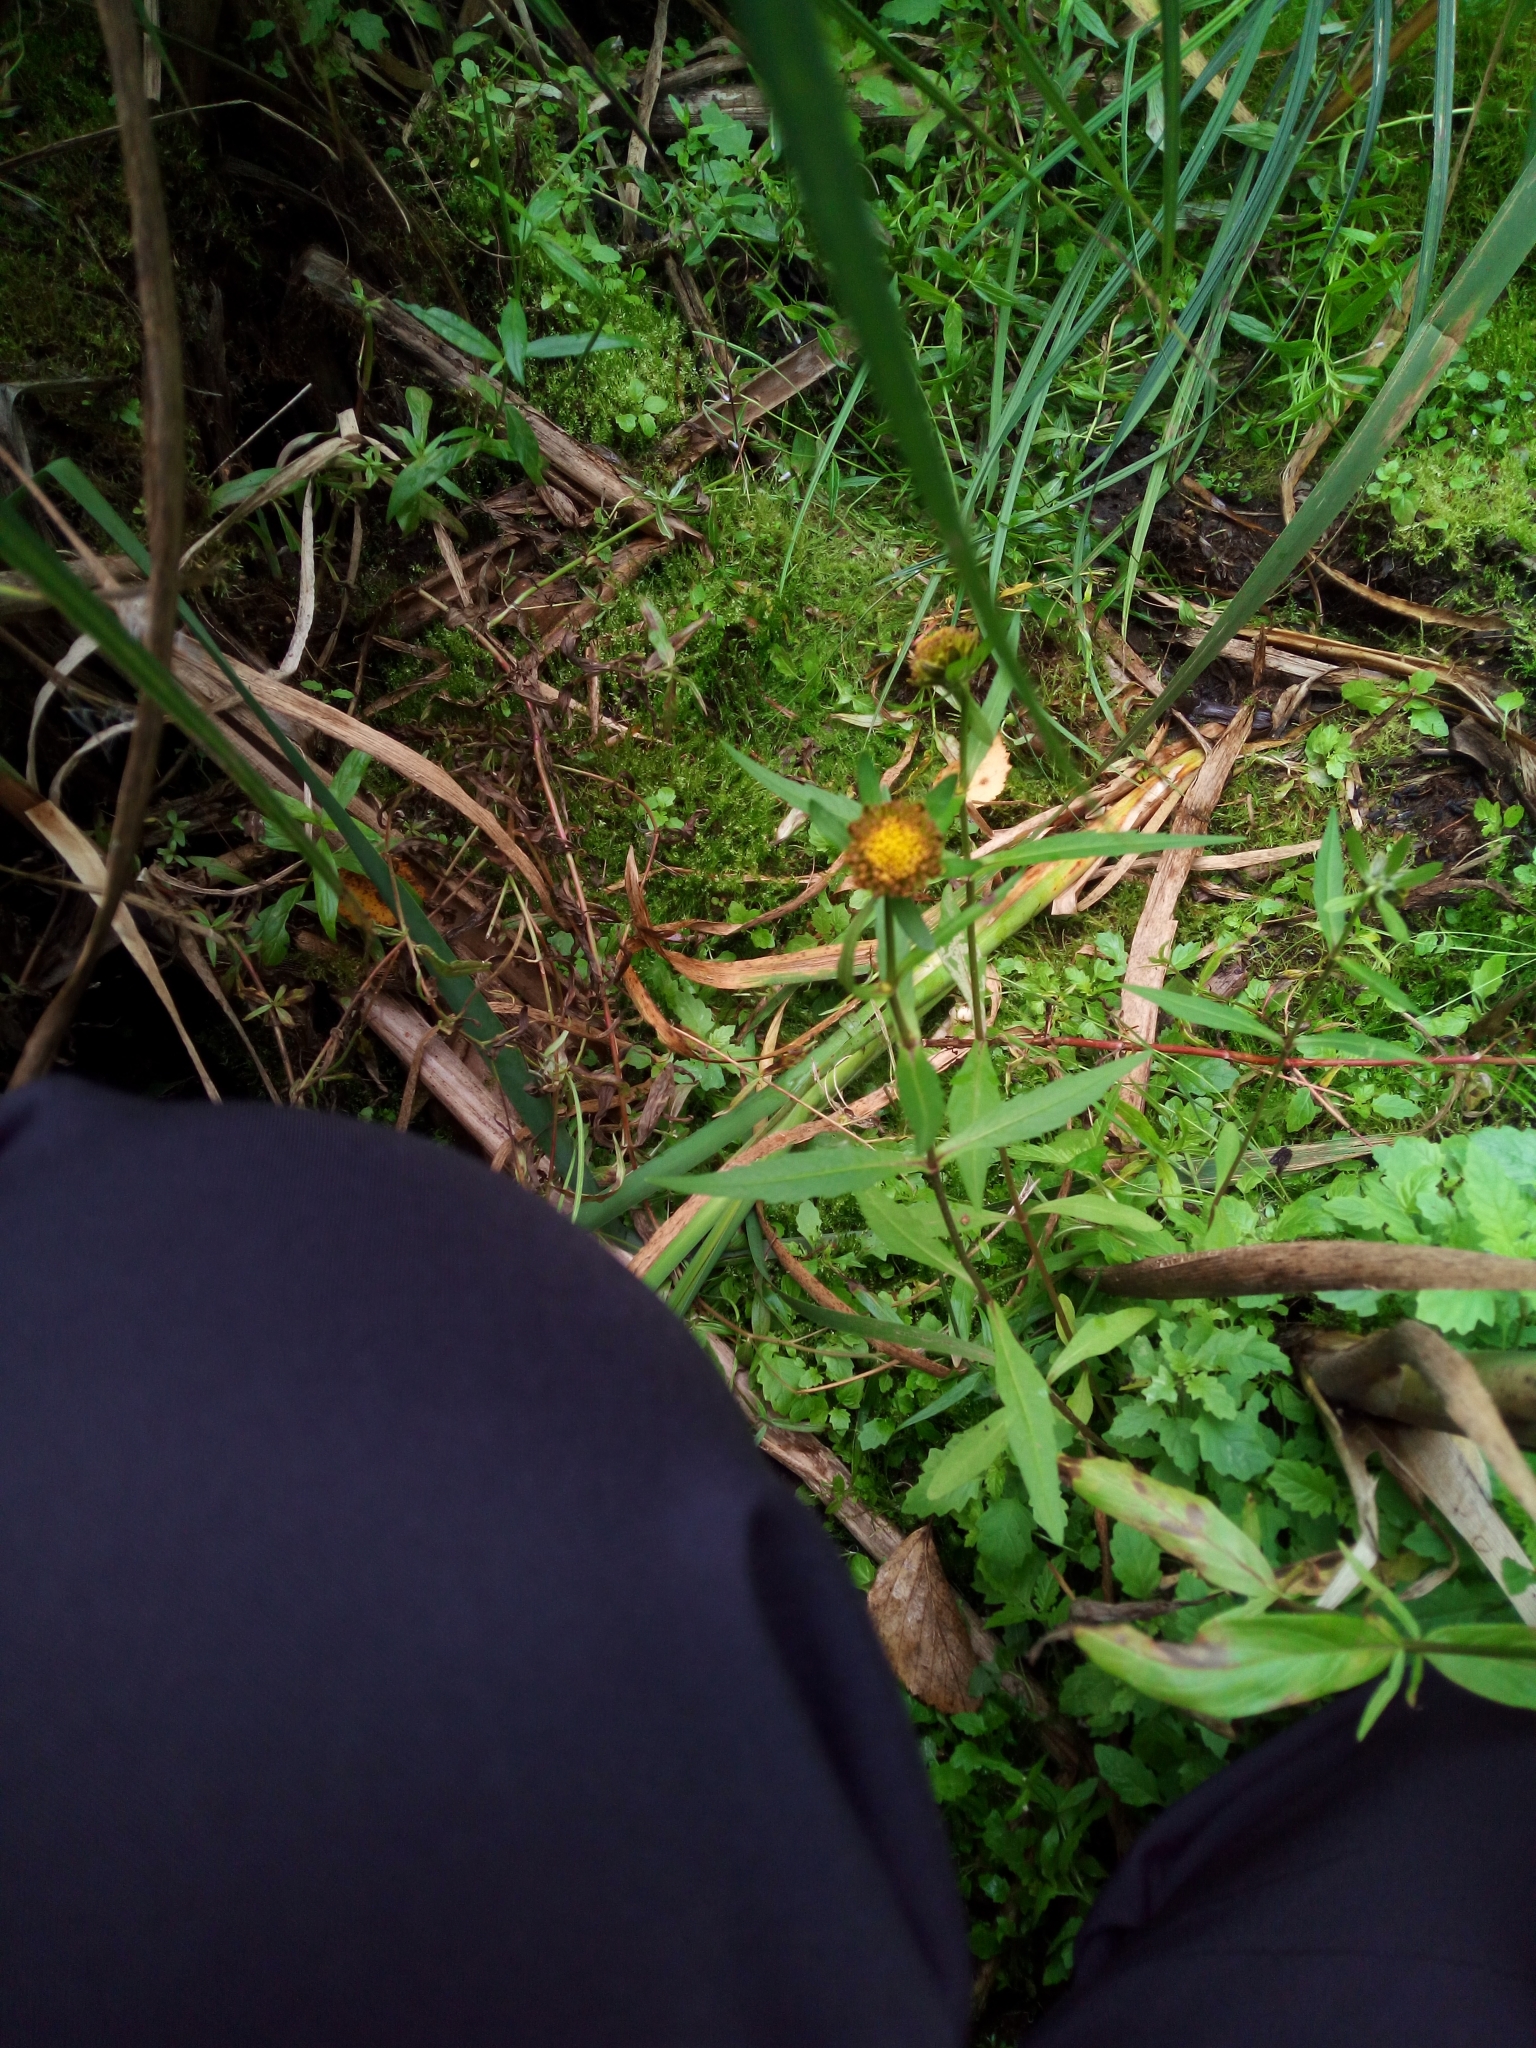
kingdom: Plantae
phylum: Tracheophyta
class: Magnoliopsida
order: Asterales
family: Asteraceae
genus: Bidens
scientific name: Bidens cernua
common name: Nodding bur-marigold
